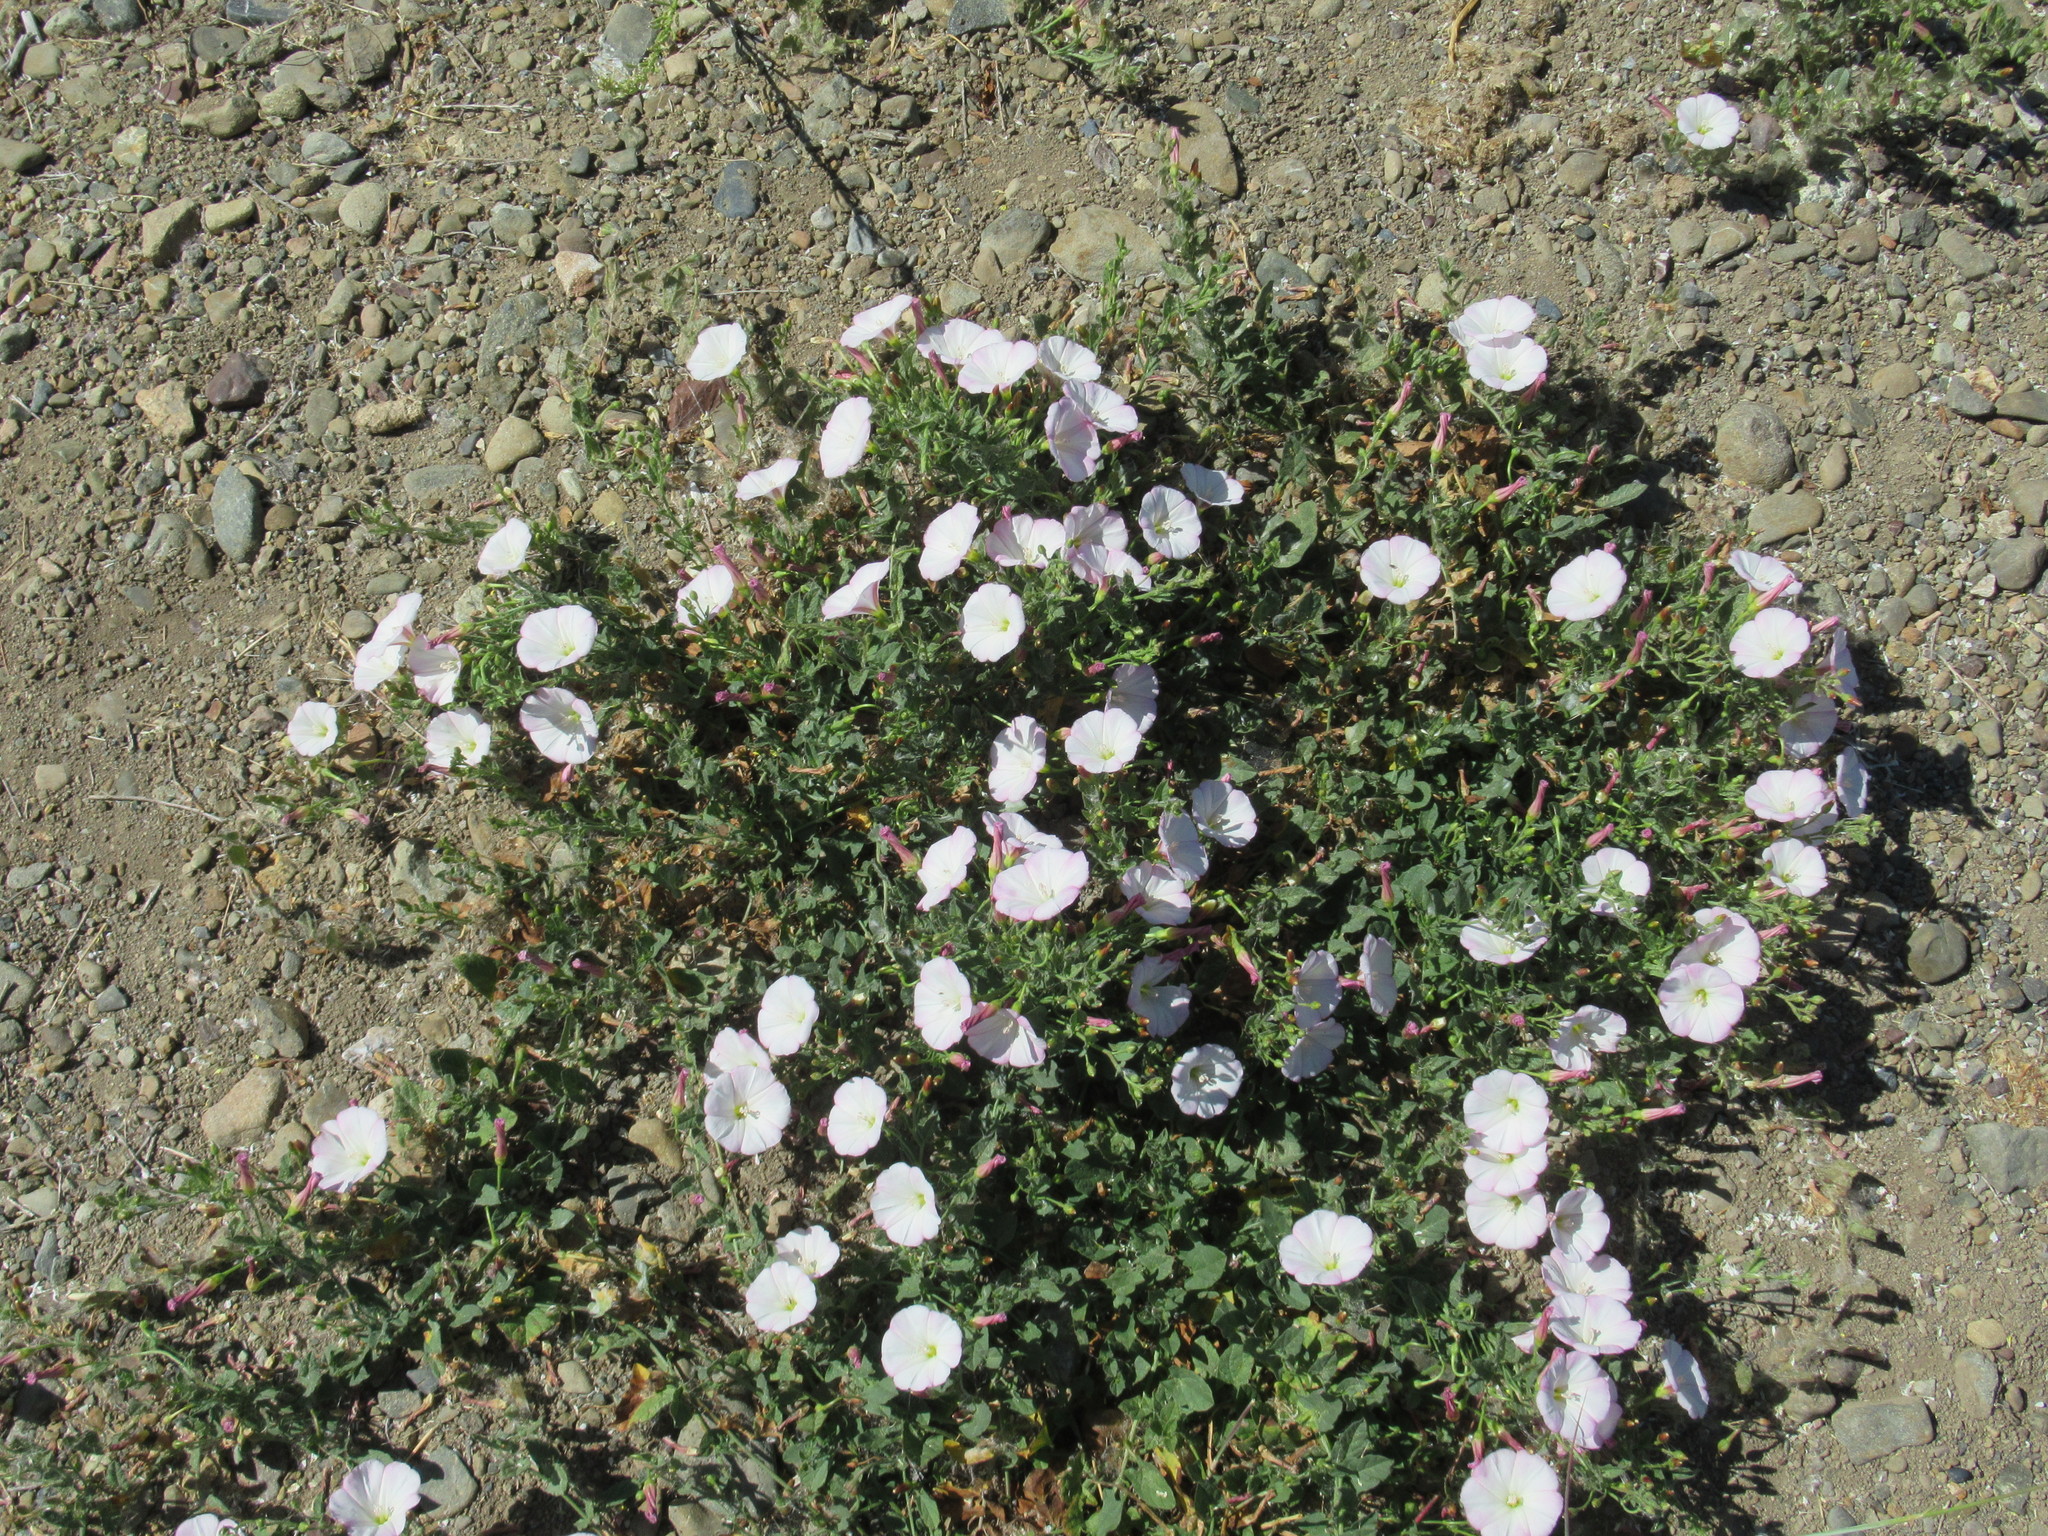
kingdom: Plantae
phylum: Tracheophyta
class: Magnoliopsida
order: Solanales
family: Convolvulaceae
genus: Convolvulus
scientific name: Convolvulus arvensis
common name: Field bindweed
